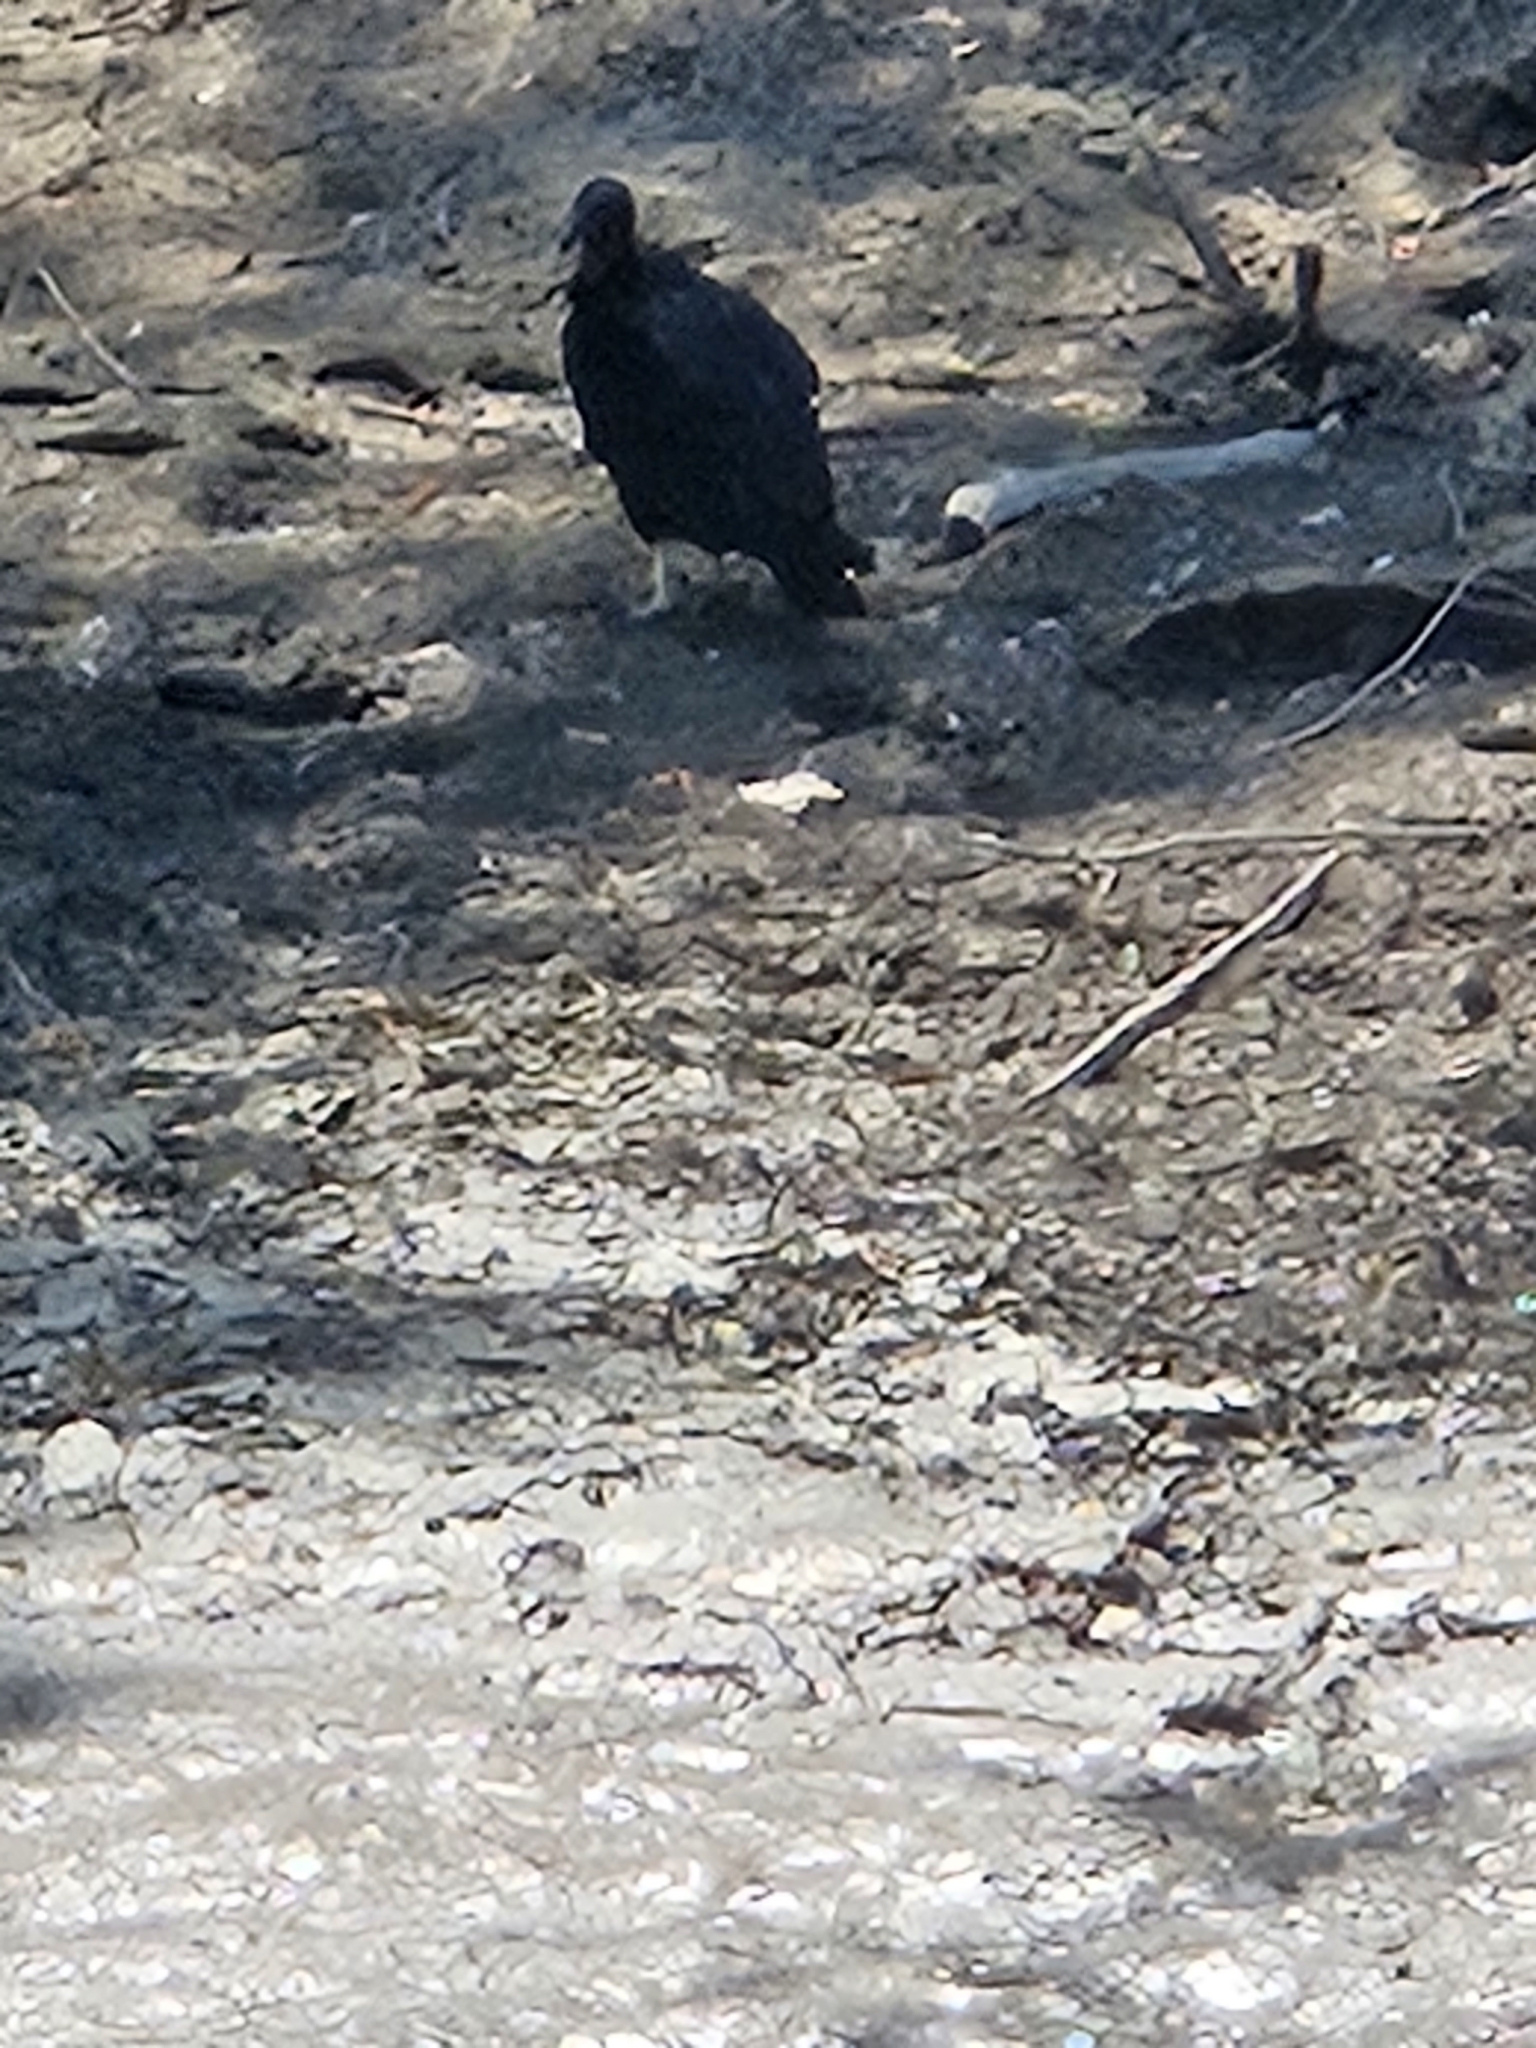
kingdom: Animalia
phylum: Chordata
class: Aves
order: Accipitriformes
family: Cathartidae
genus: Coragyps
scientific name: Coragyps atratus
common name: Black vulture
